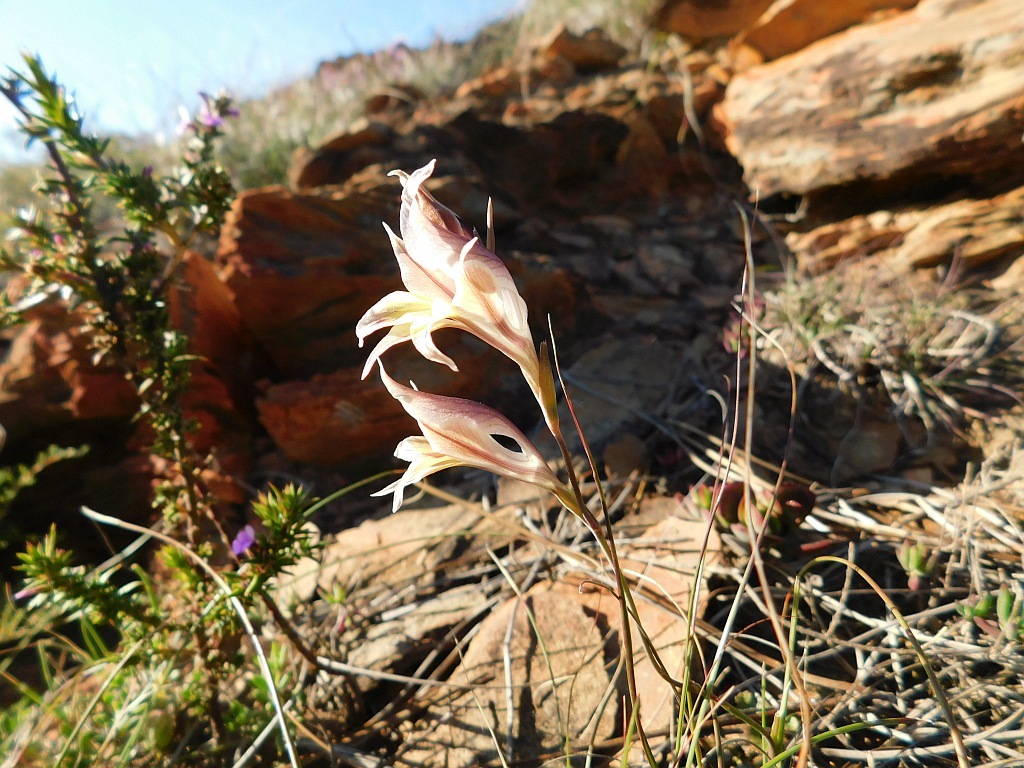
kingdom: Plantae
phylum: Tracheophyta
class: Liliopsida
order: Asparagales
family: Iridaceae
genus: Gladiolus
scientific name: Gladiolus permeabilis
